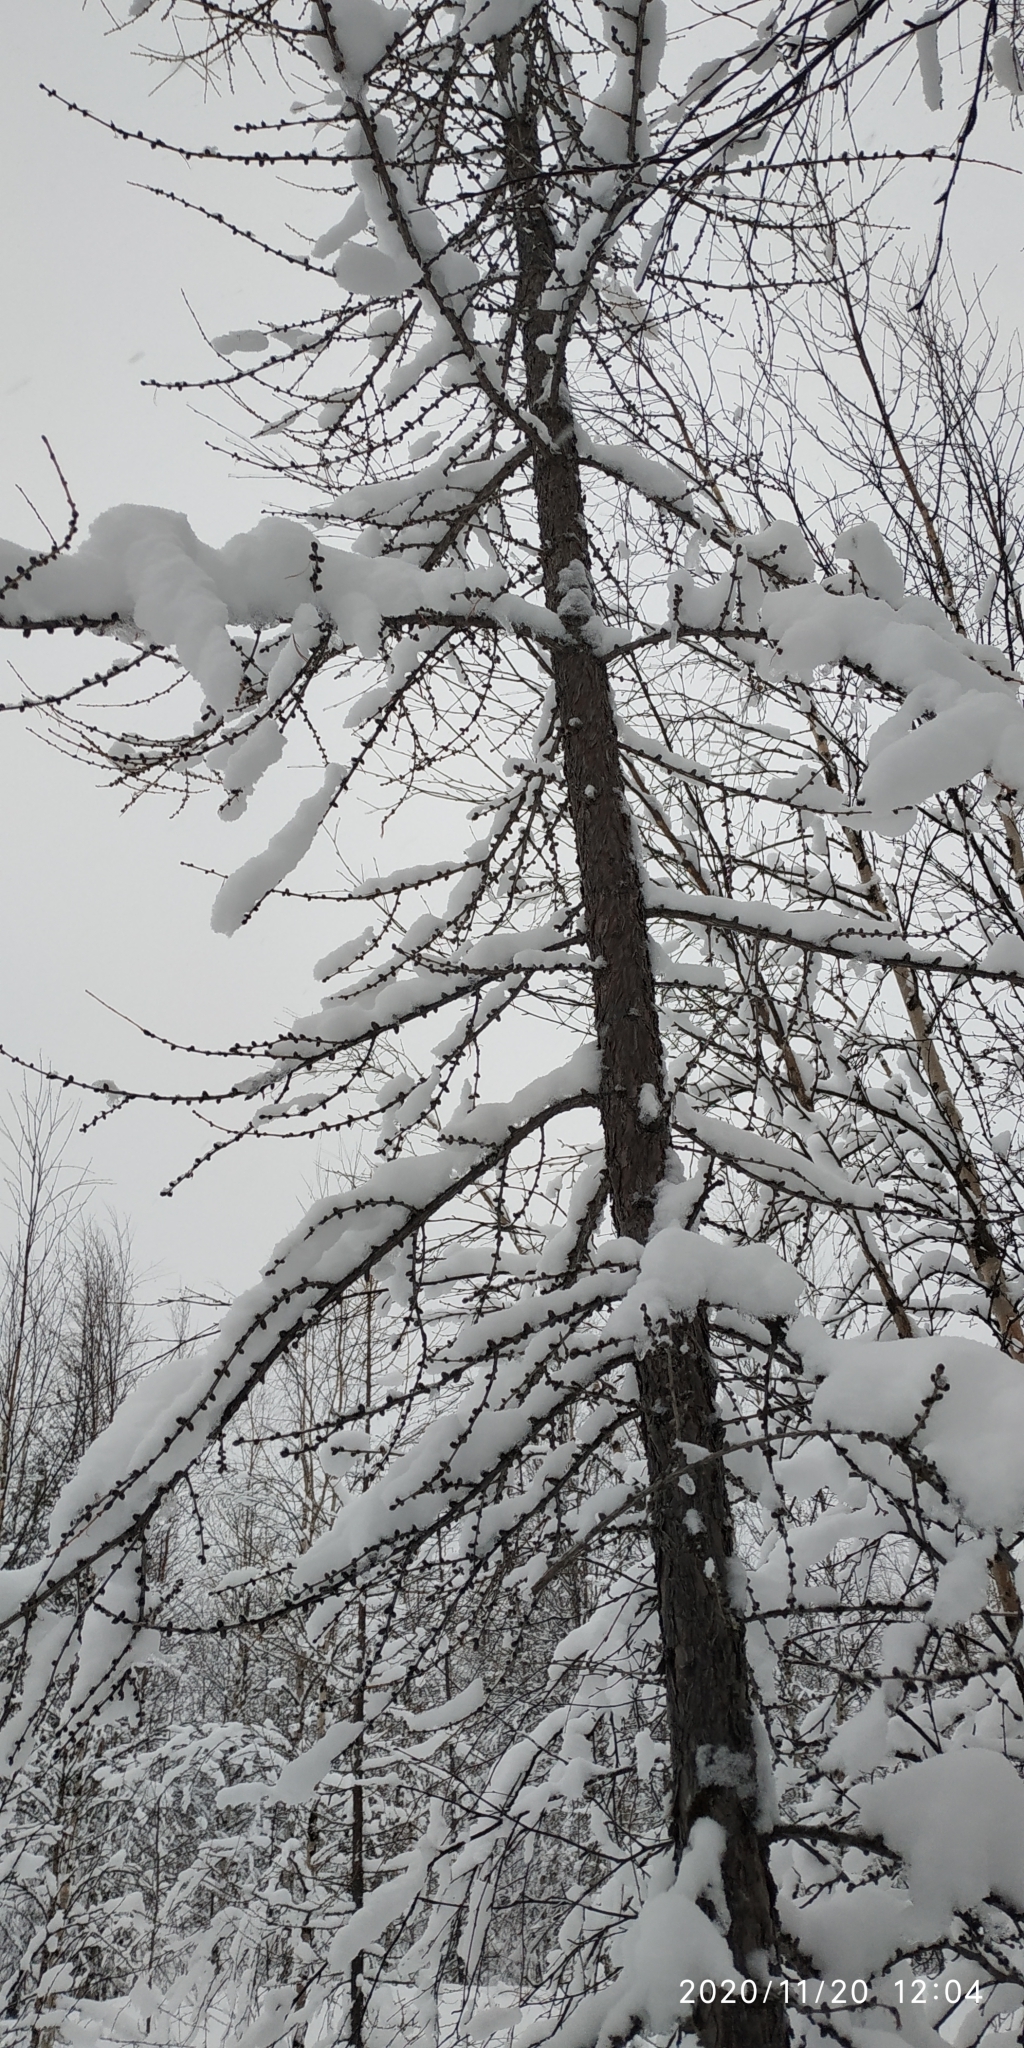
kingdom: Plantae
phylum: Tracheophyta
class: Pinopsida
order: Pinales
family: Pinaceae
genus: Larix
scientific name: Larix sibirica
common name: Siberian larch
